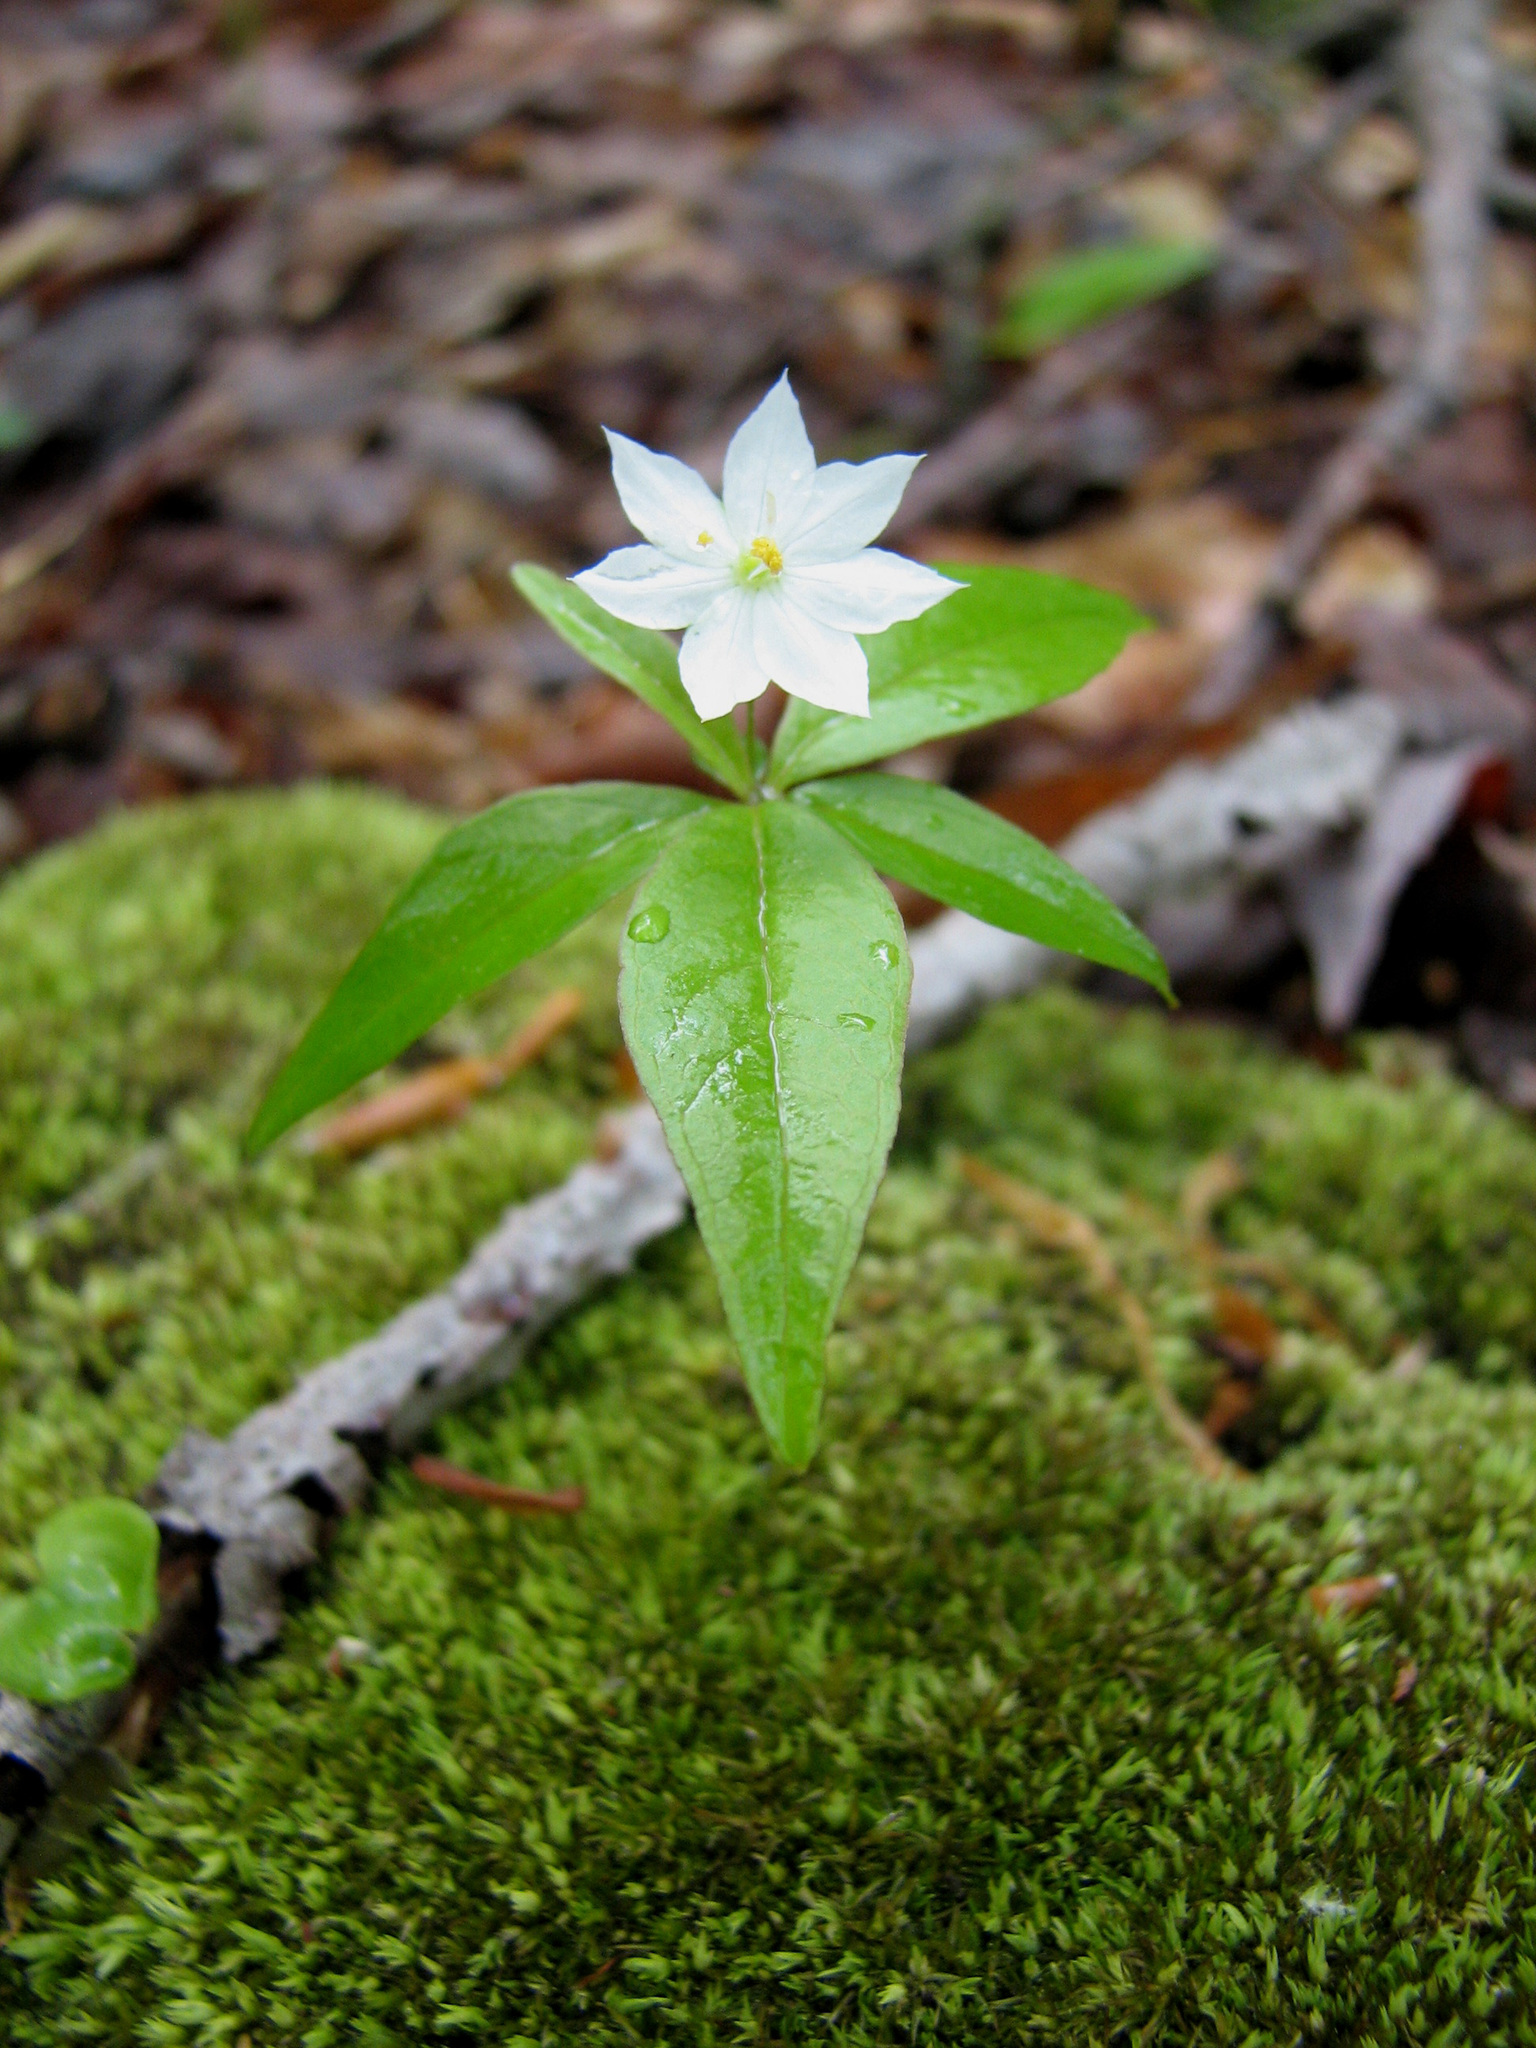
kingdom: Plantae
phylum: Tracheophyta
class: Magnoliopsida
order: Ericales
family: Primulaceae
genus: Lysimachia
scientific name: Lysimachia borealis
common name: American starflower
